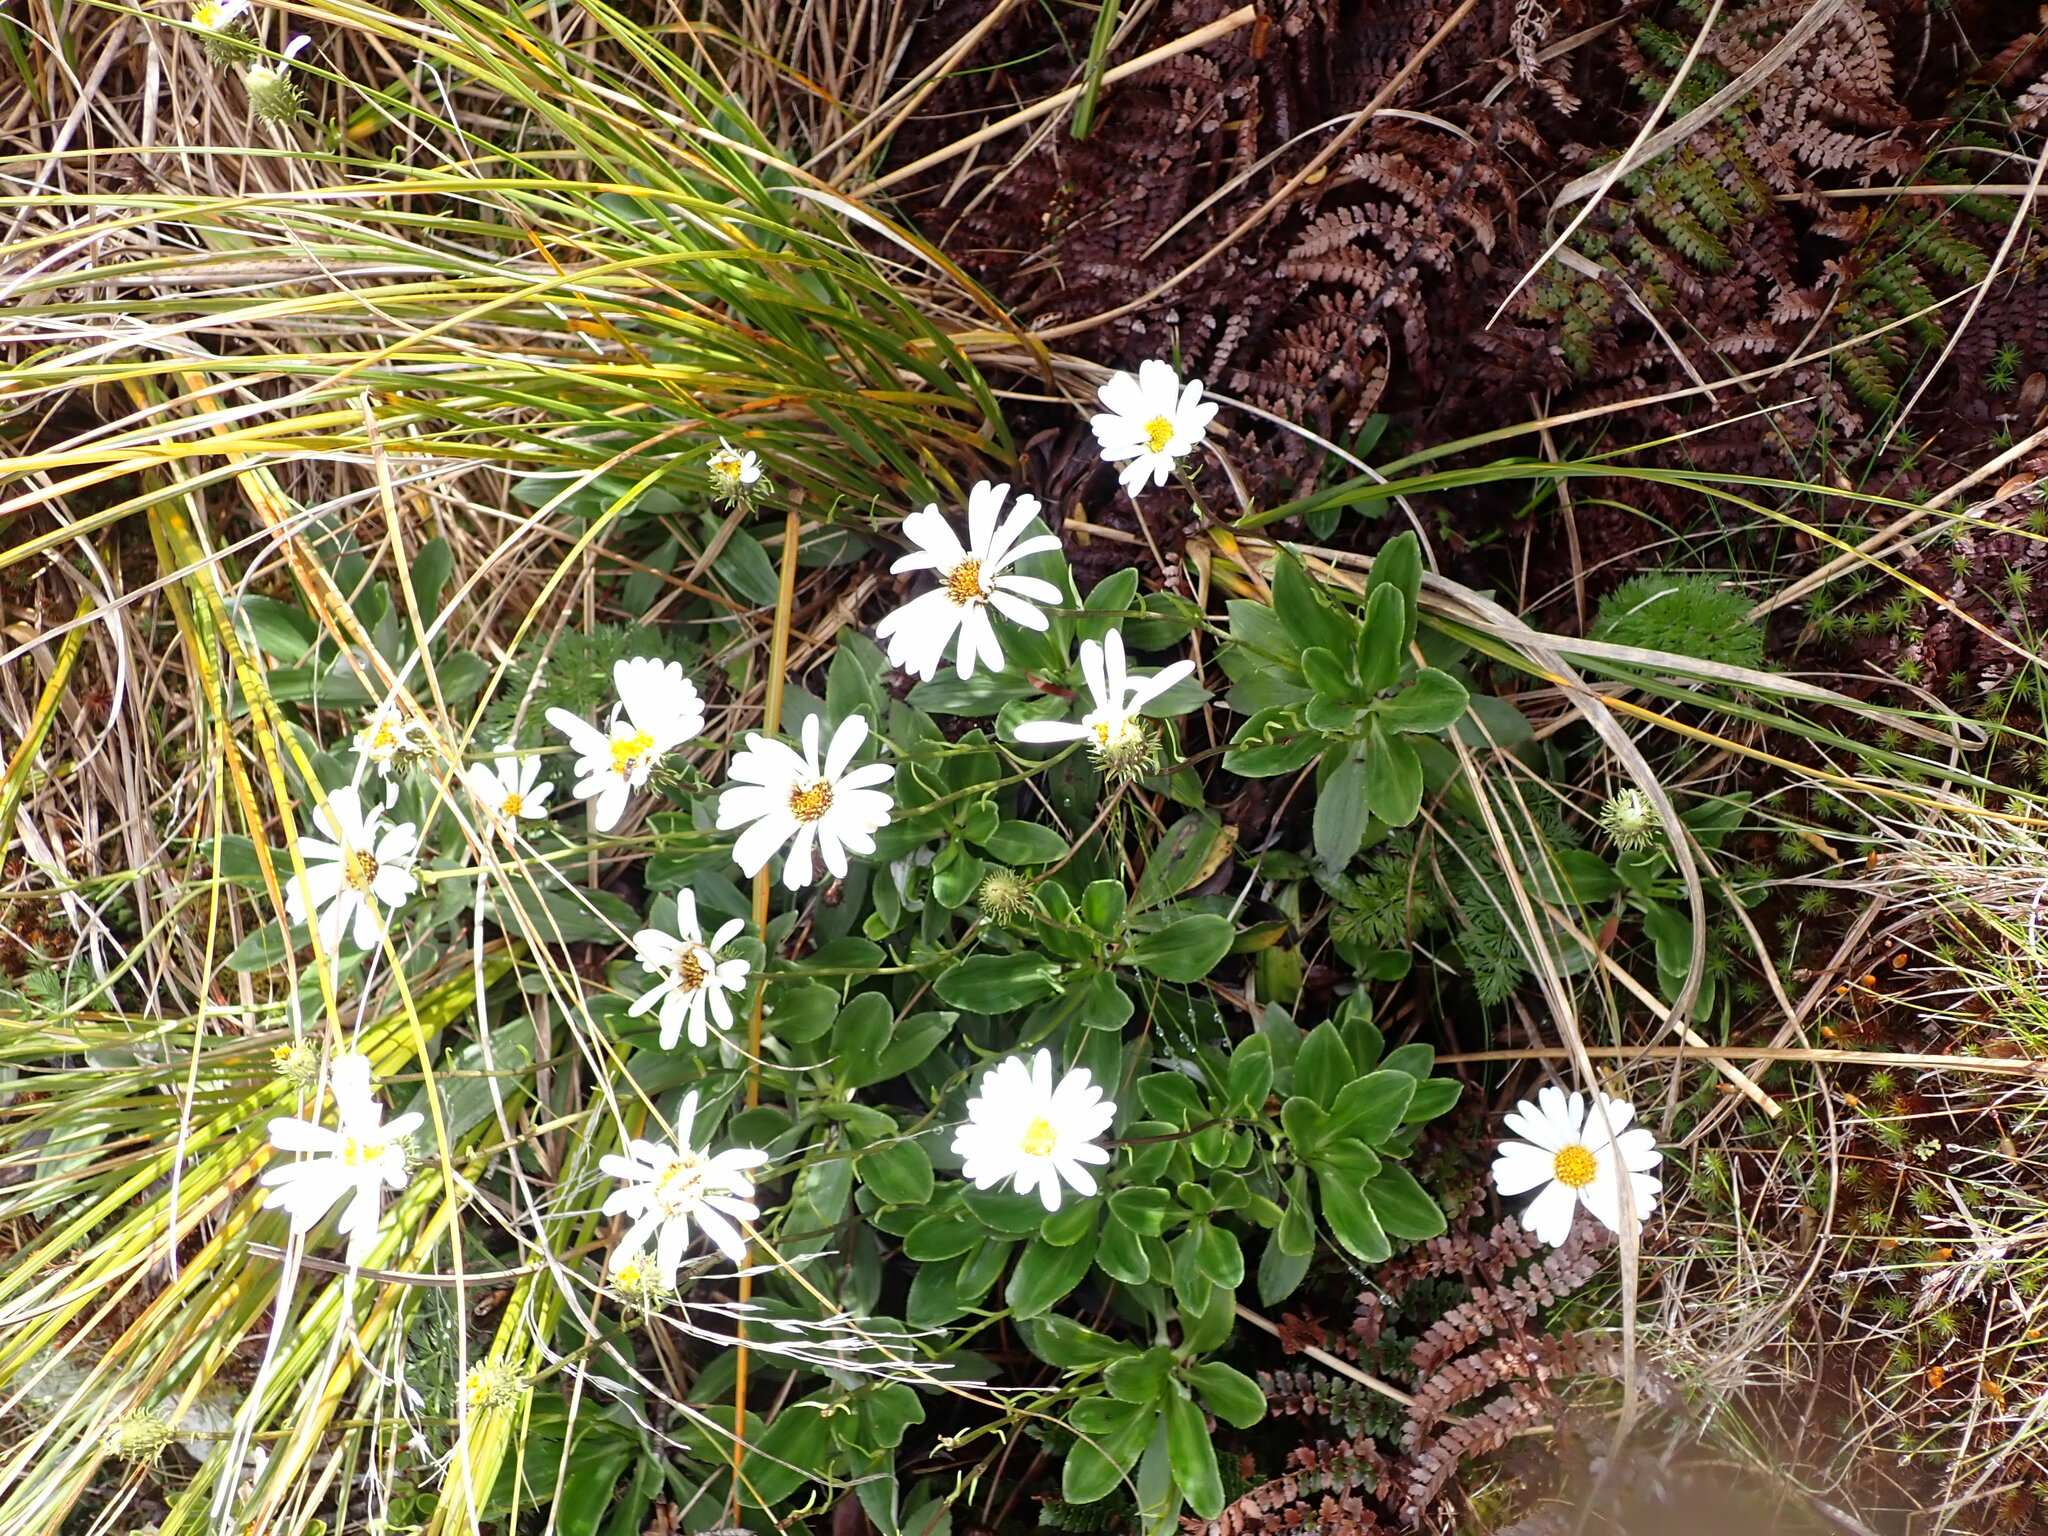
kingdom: Plantae
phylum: Tracheophyta
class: Magnoliopsida
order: Asterales
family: Asteraceae
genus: Celmisia
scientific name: Celmisia durietzii
